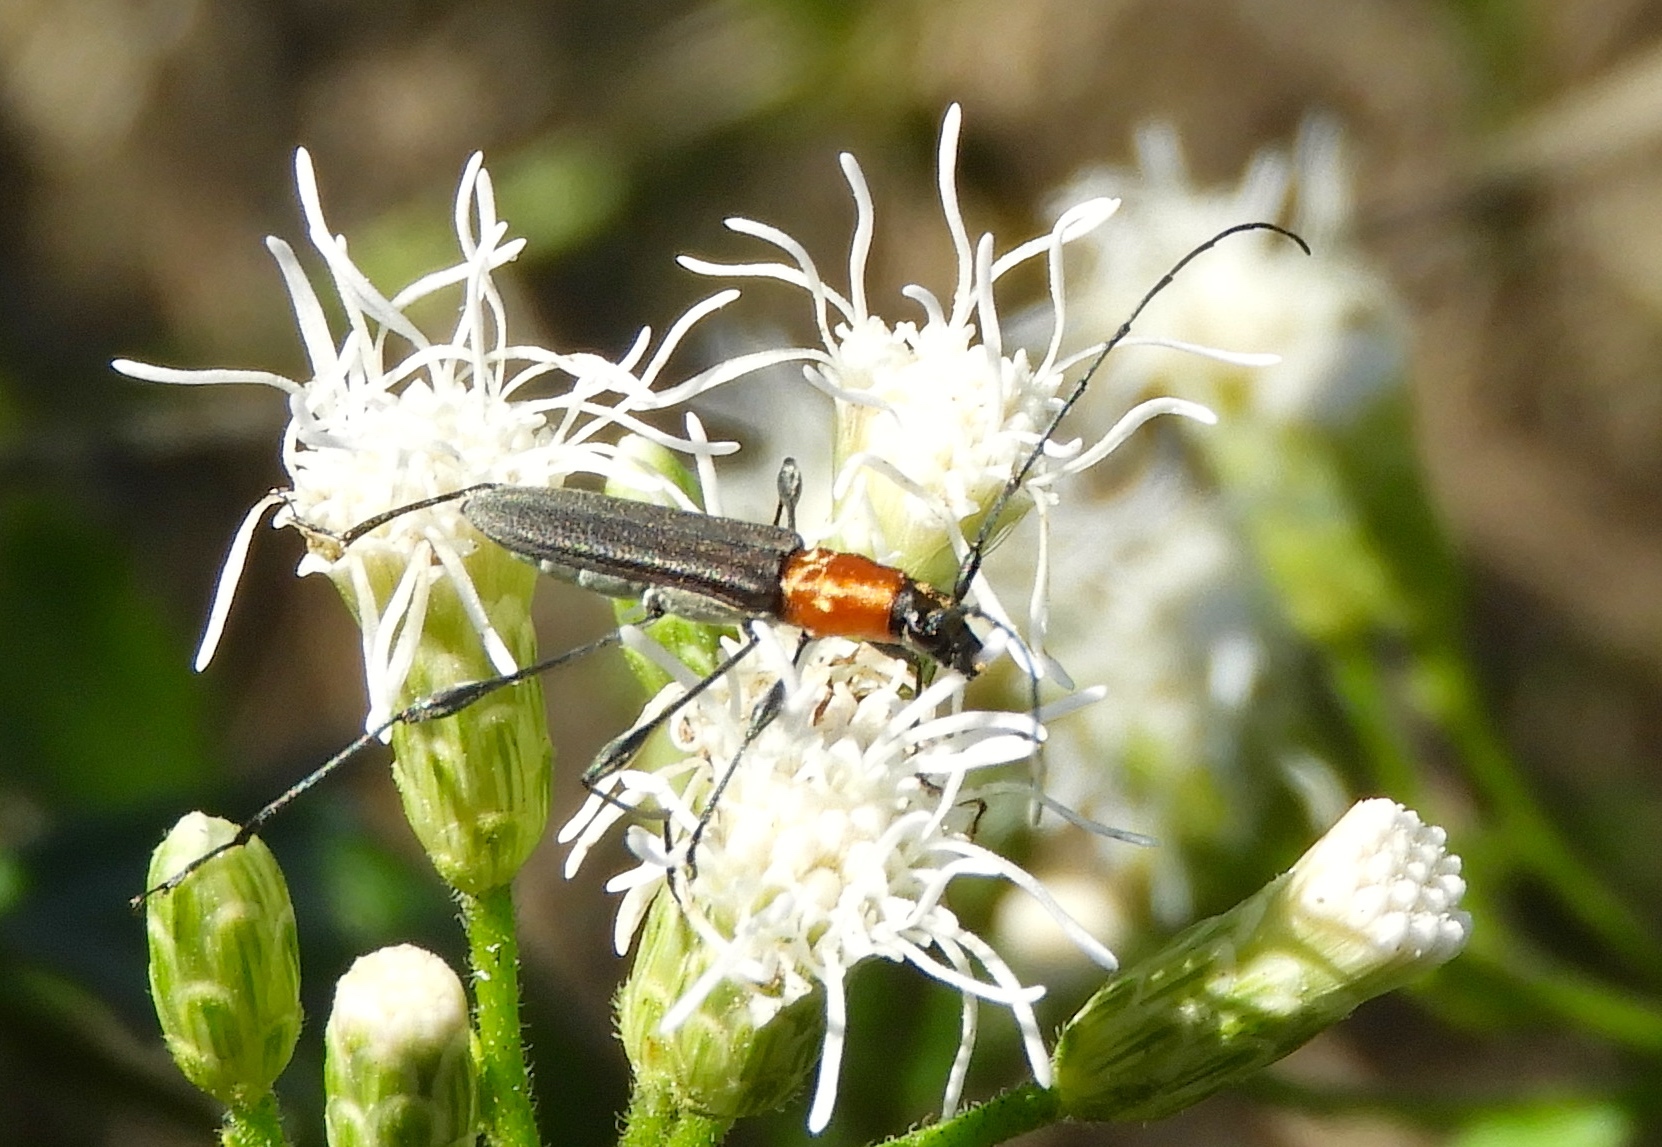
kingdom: Animalia
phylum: Arthropoda
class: Insecta
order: Coleoptera
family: Cerambycidae
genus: Rhopalophora
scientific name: Rhopalophora rugicollis
